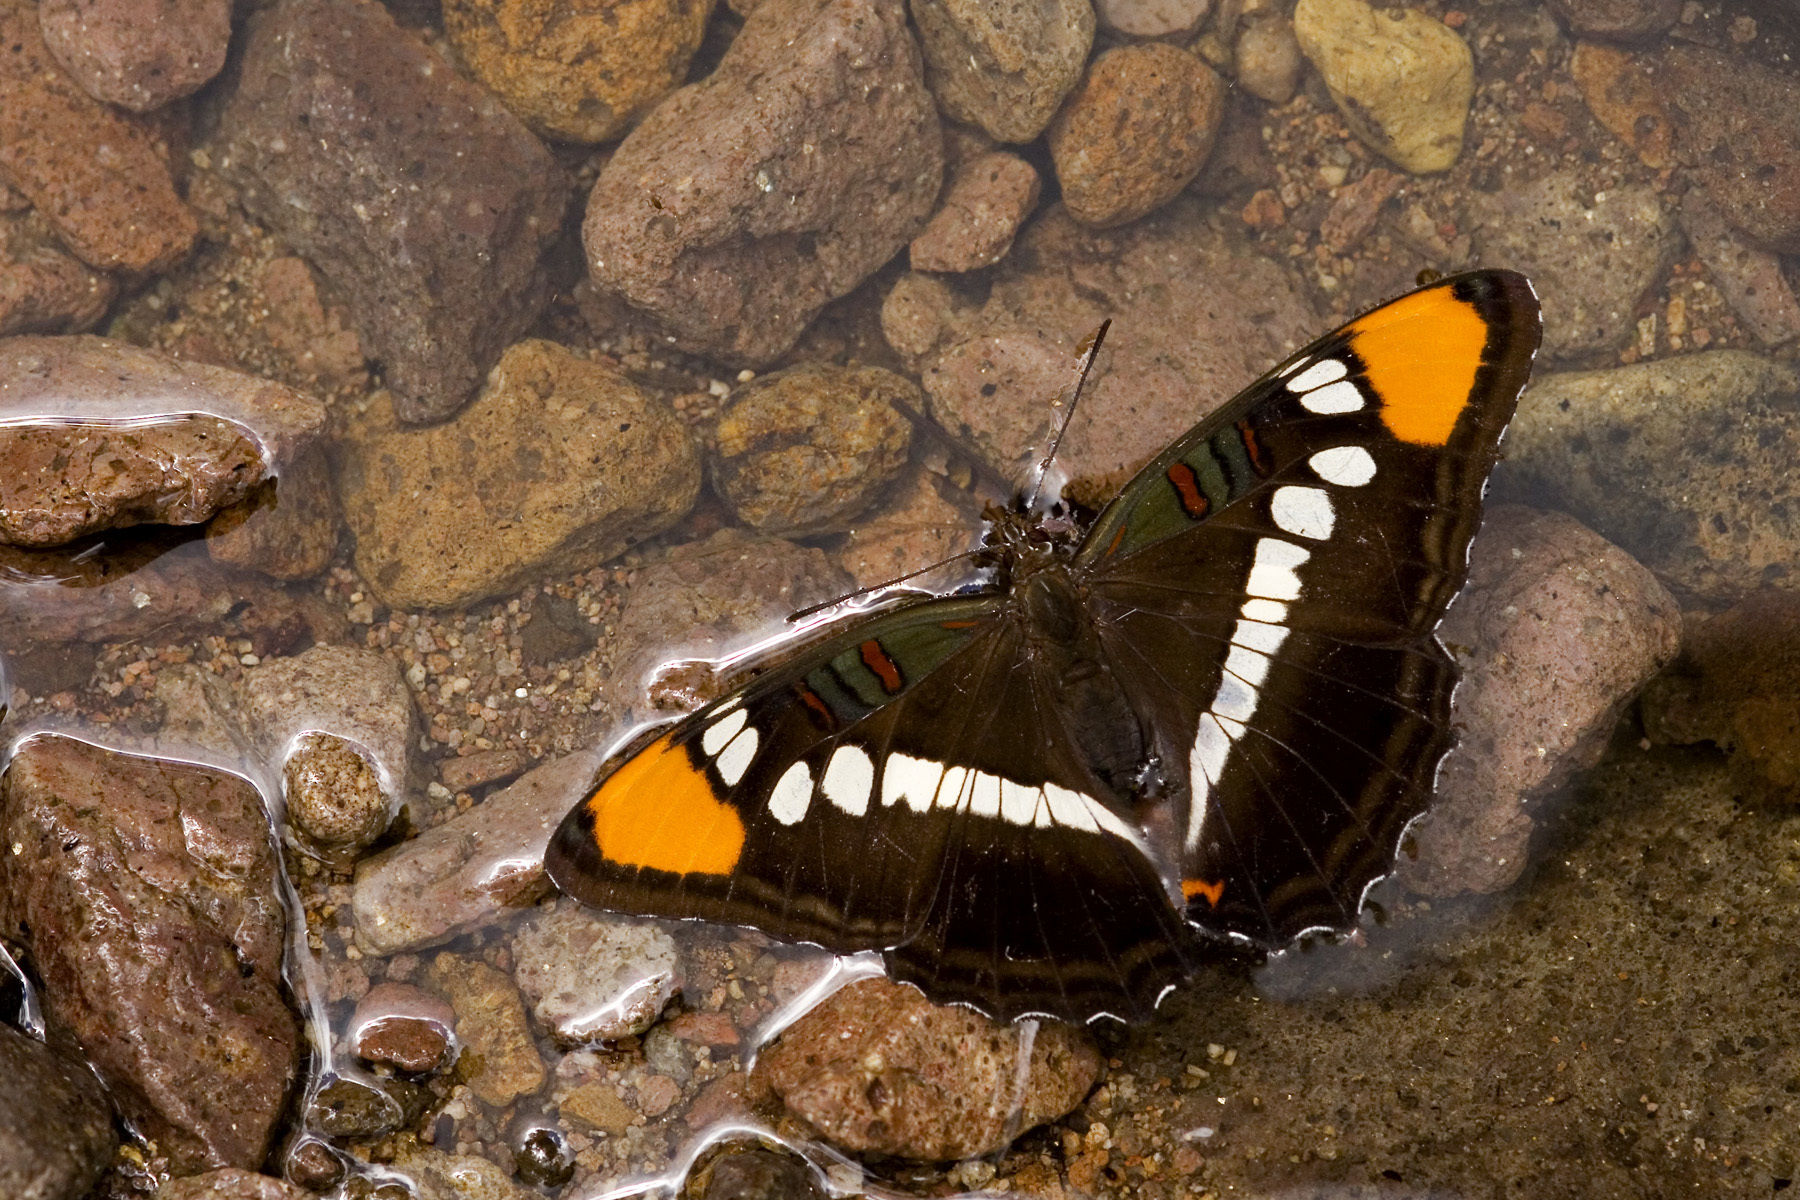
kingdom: Animalia
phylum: Arthropoda
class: Insecta
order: Lepidoptera
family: Nymphalidae
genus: Limenitis
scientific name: Limenitis bredowii
